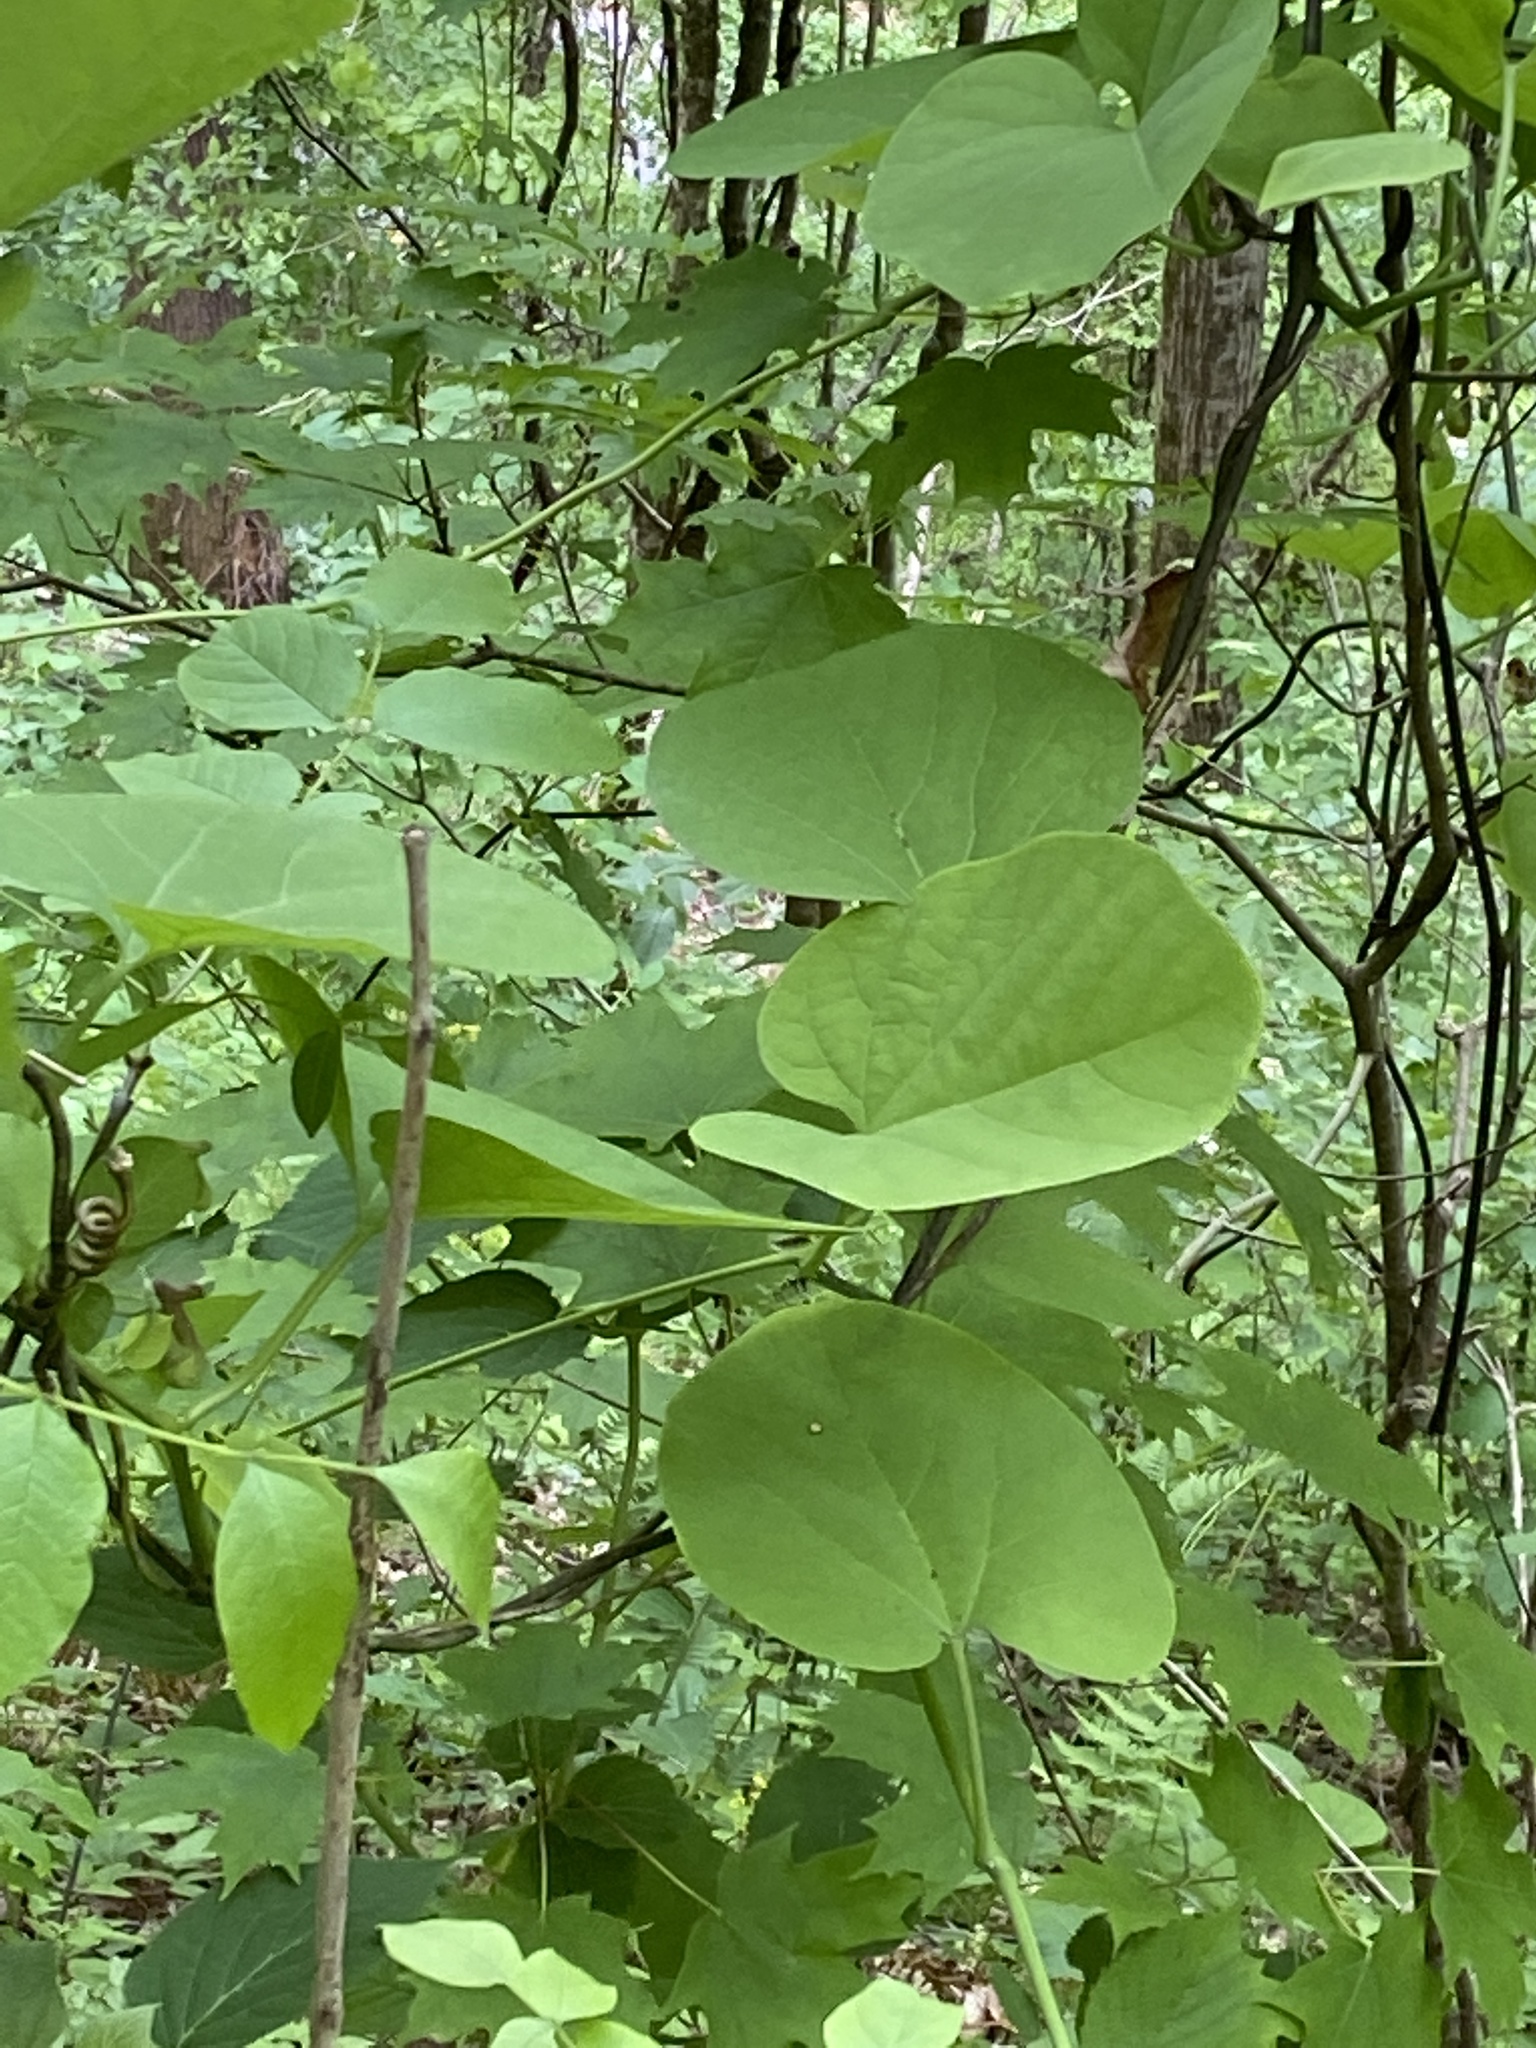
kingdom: Plantae
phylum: Tracheophyta
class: Magnoliopsida
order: Piperales
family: Aristolochiaceae
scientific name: Aristolochiaceae
